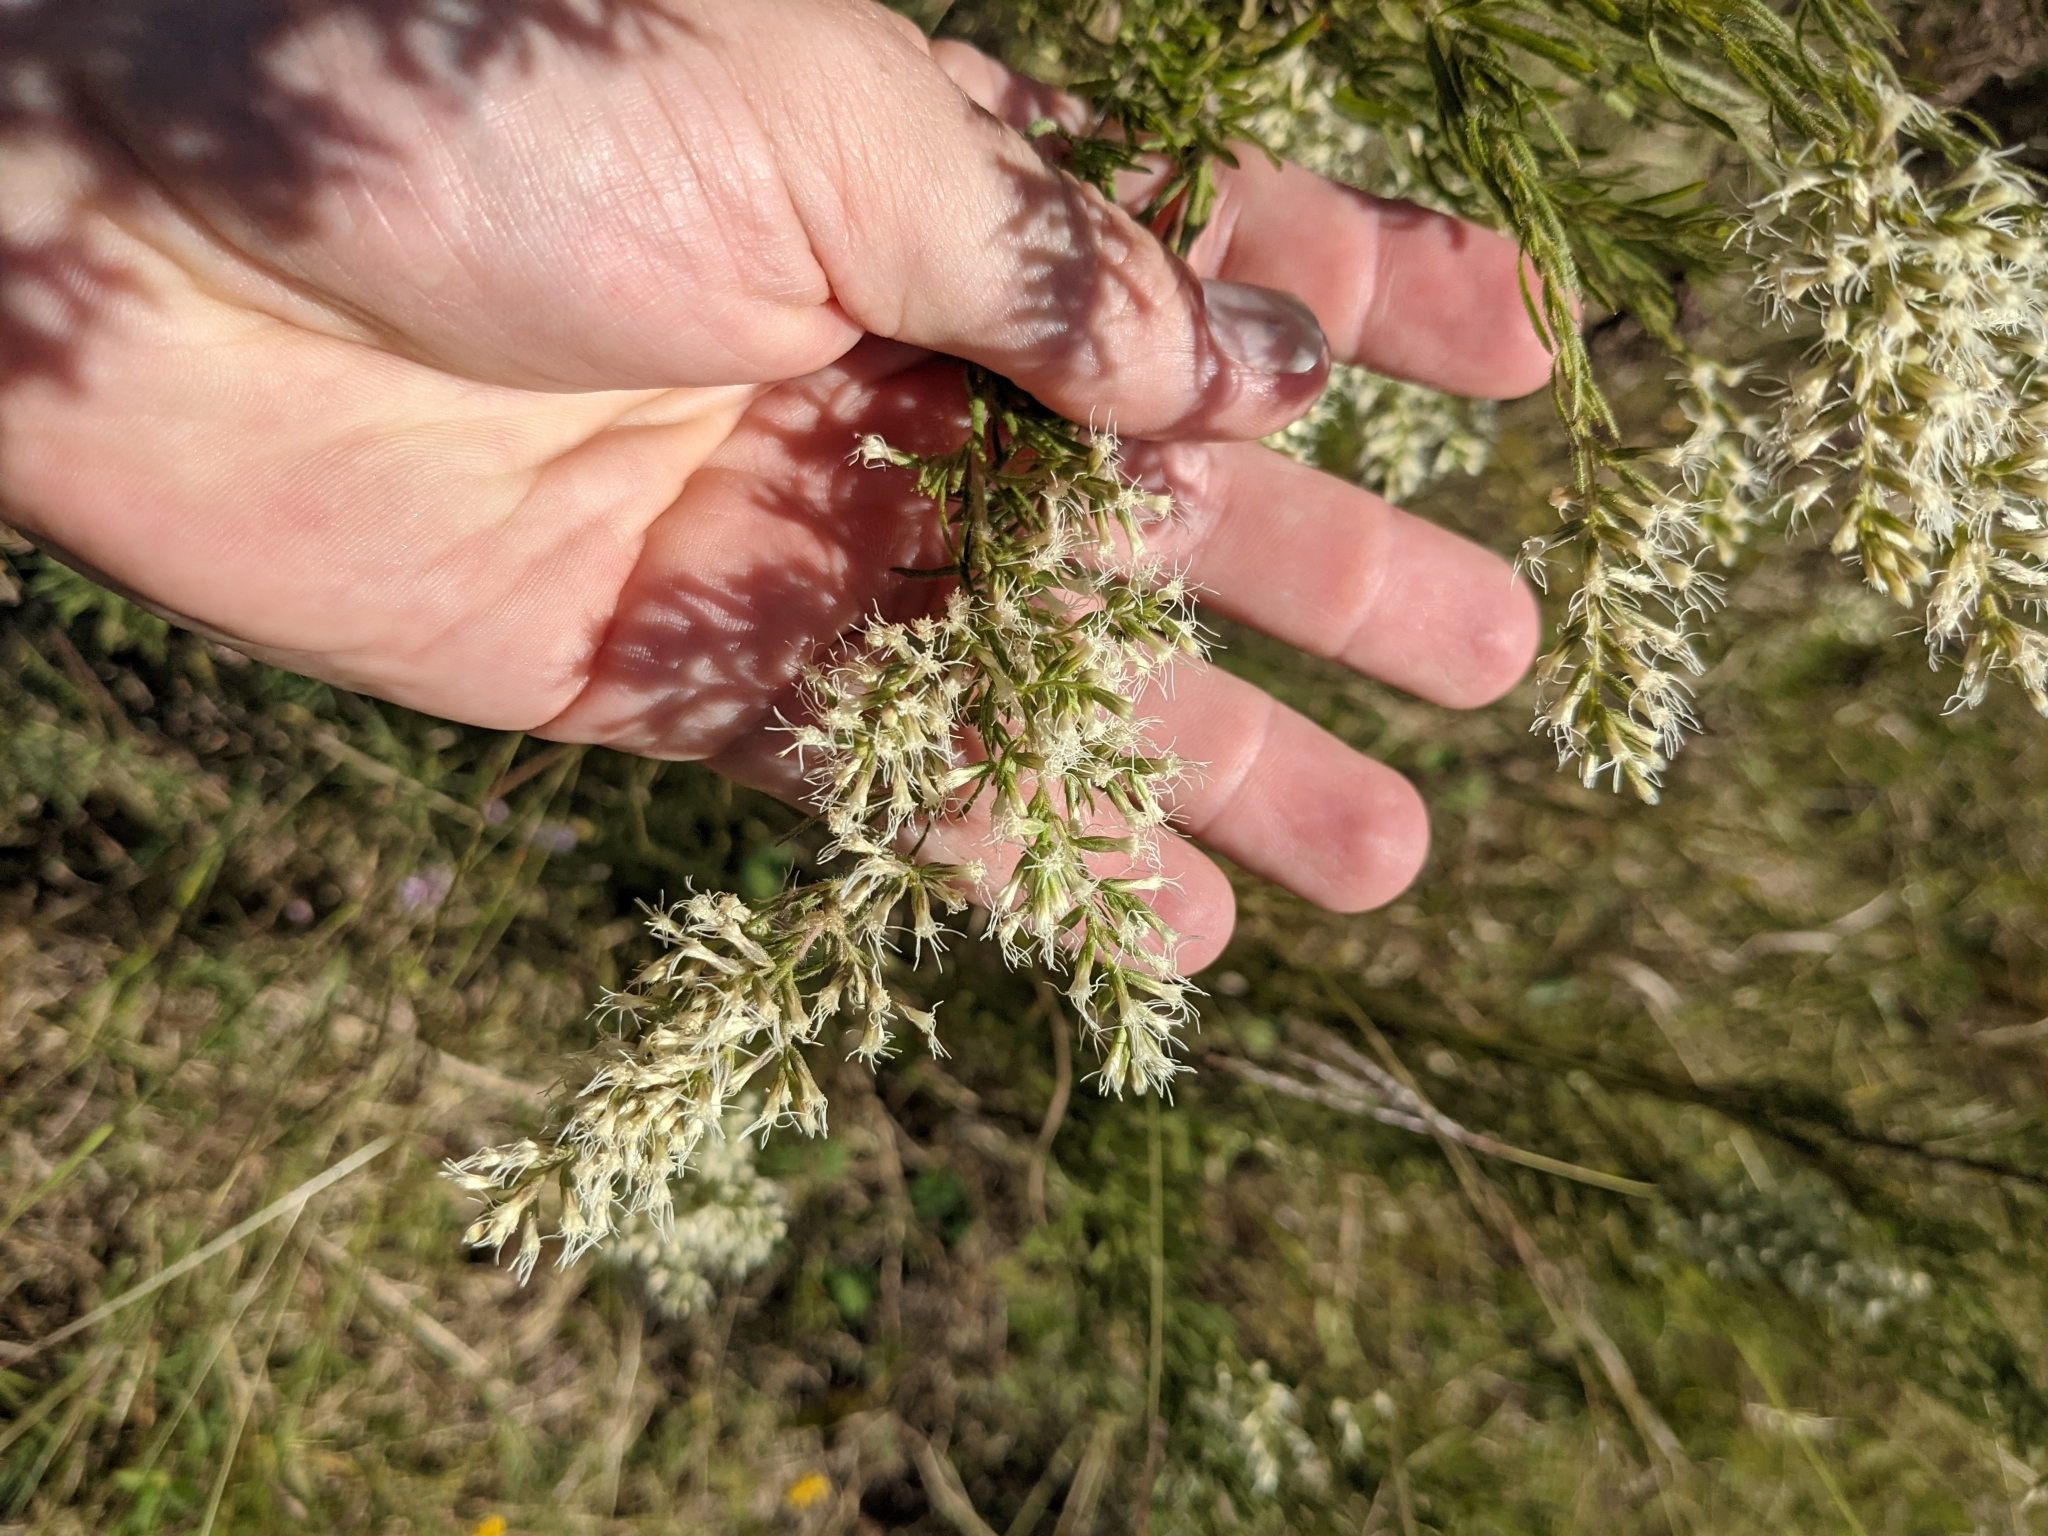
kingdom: Plantae
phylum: Tracheophyta
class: Magnoliopsida
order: Asterales
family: Asteraceae
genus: Eupatorium
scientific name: Eupatorium compositifolium
